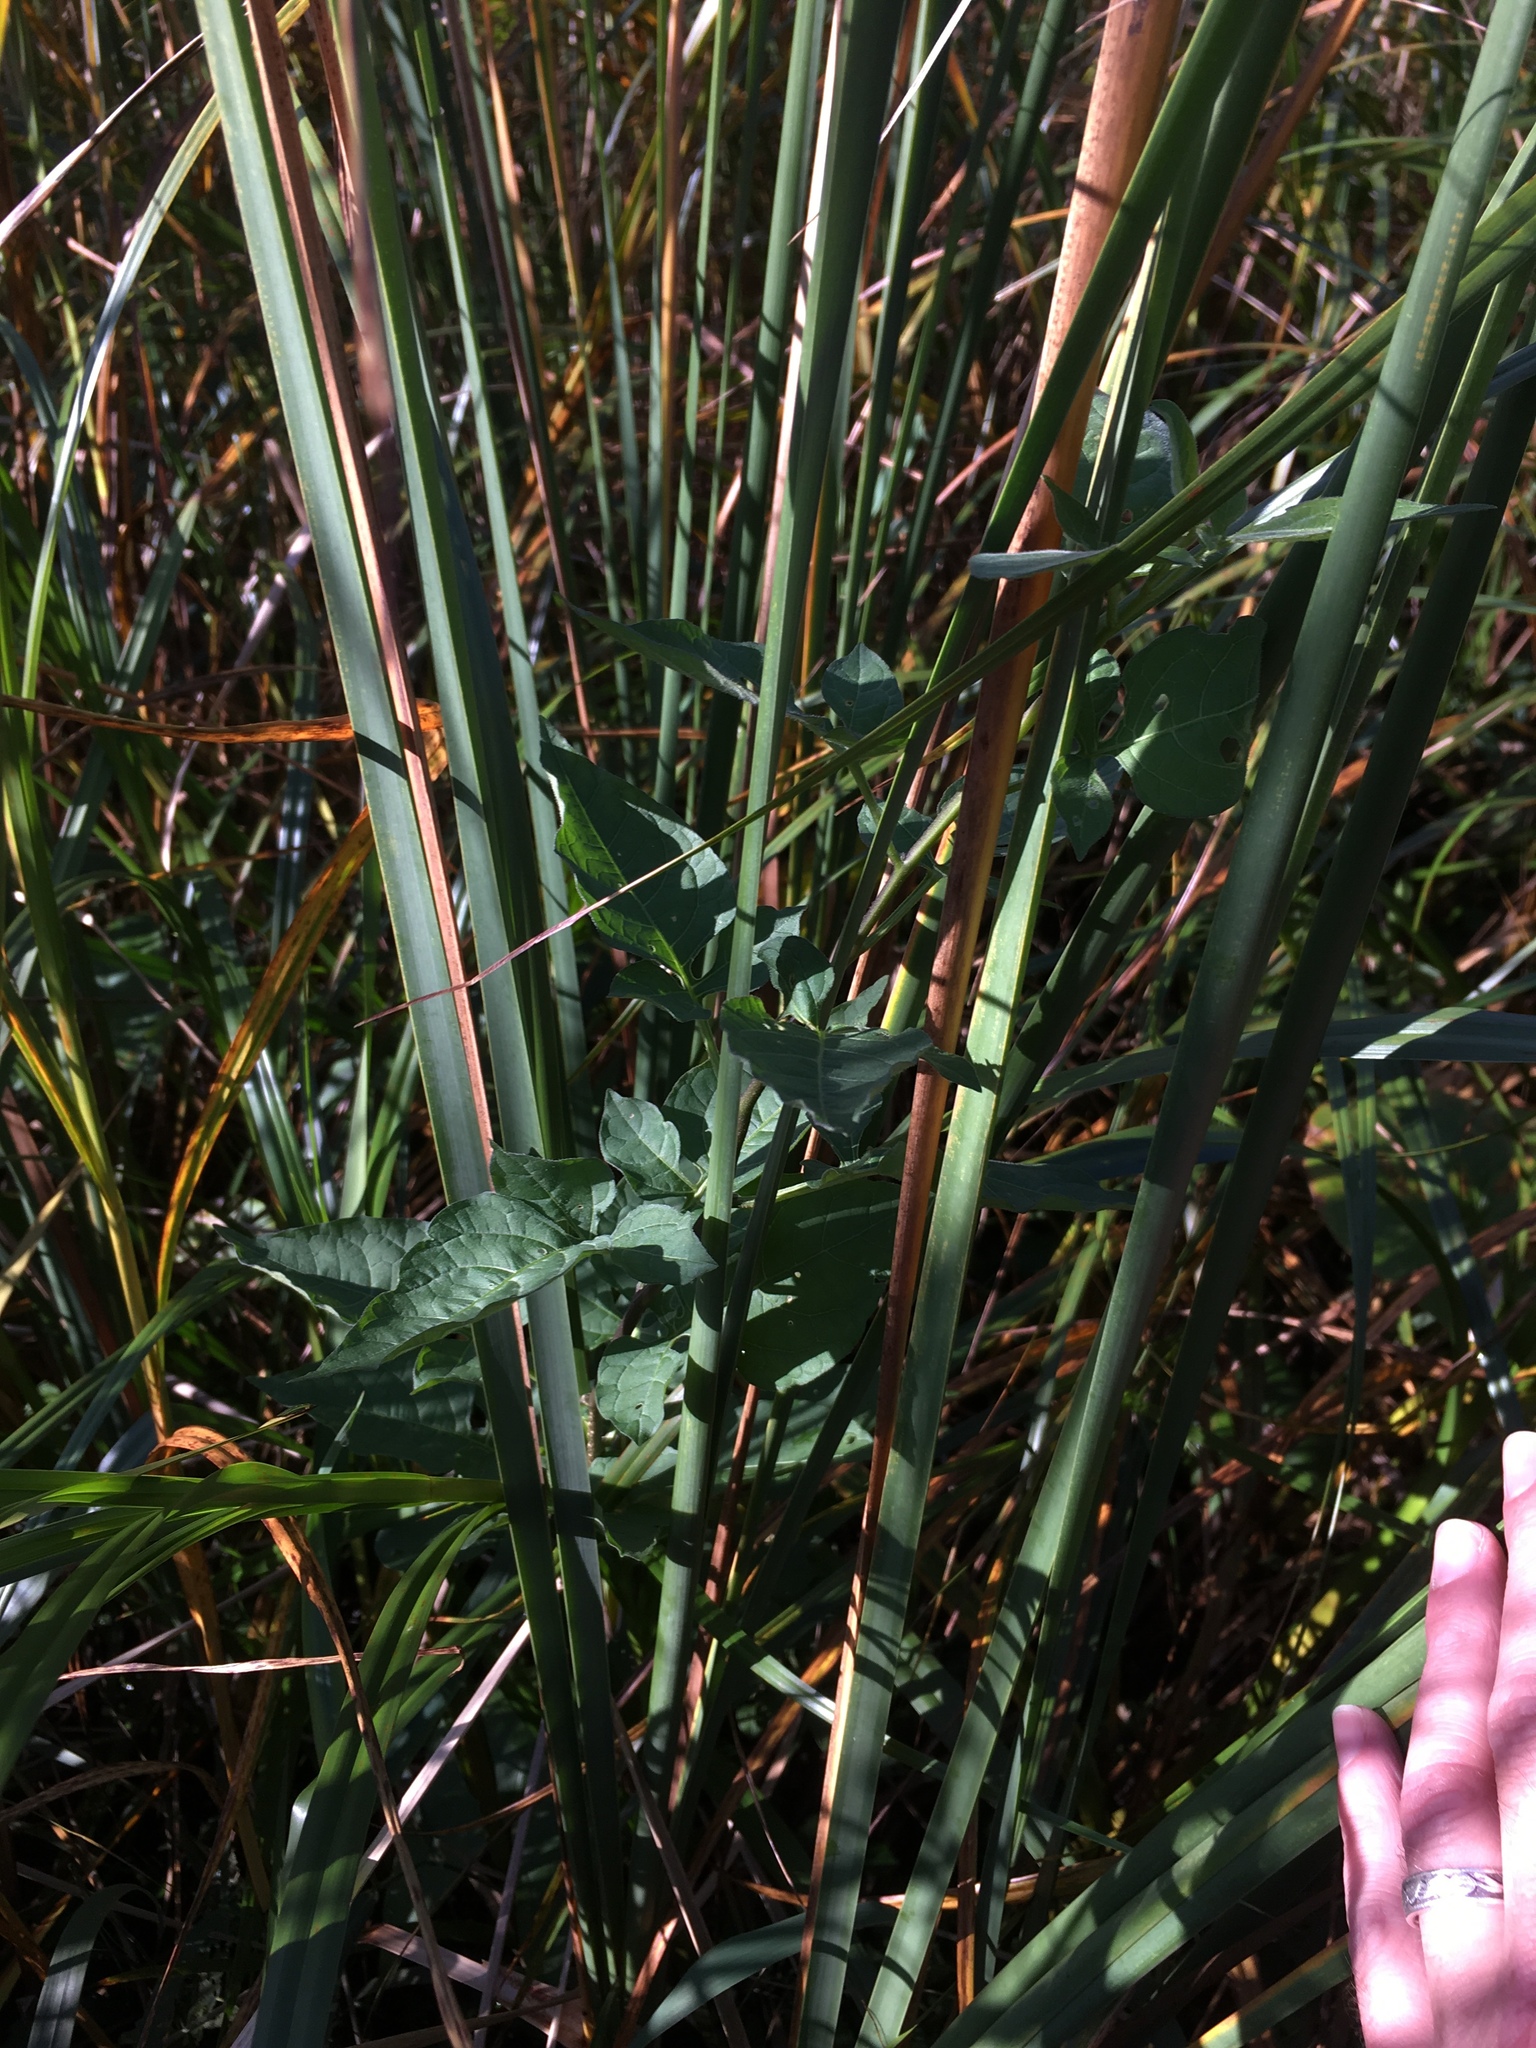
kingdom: Plantae
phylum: Tracheophyta
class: Magnoliopsida
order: Solanales
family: Solanaceae
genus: Solanum
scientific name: Solanum dulcamara
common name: Climbing nightshade
